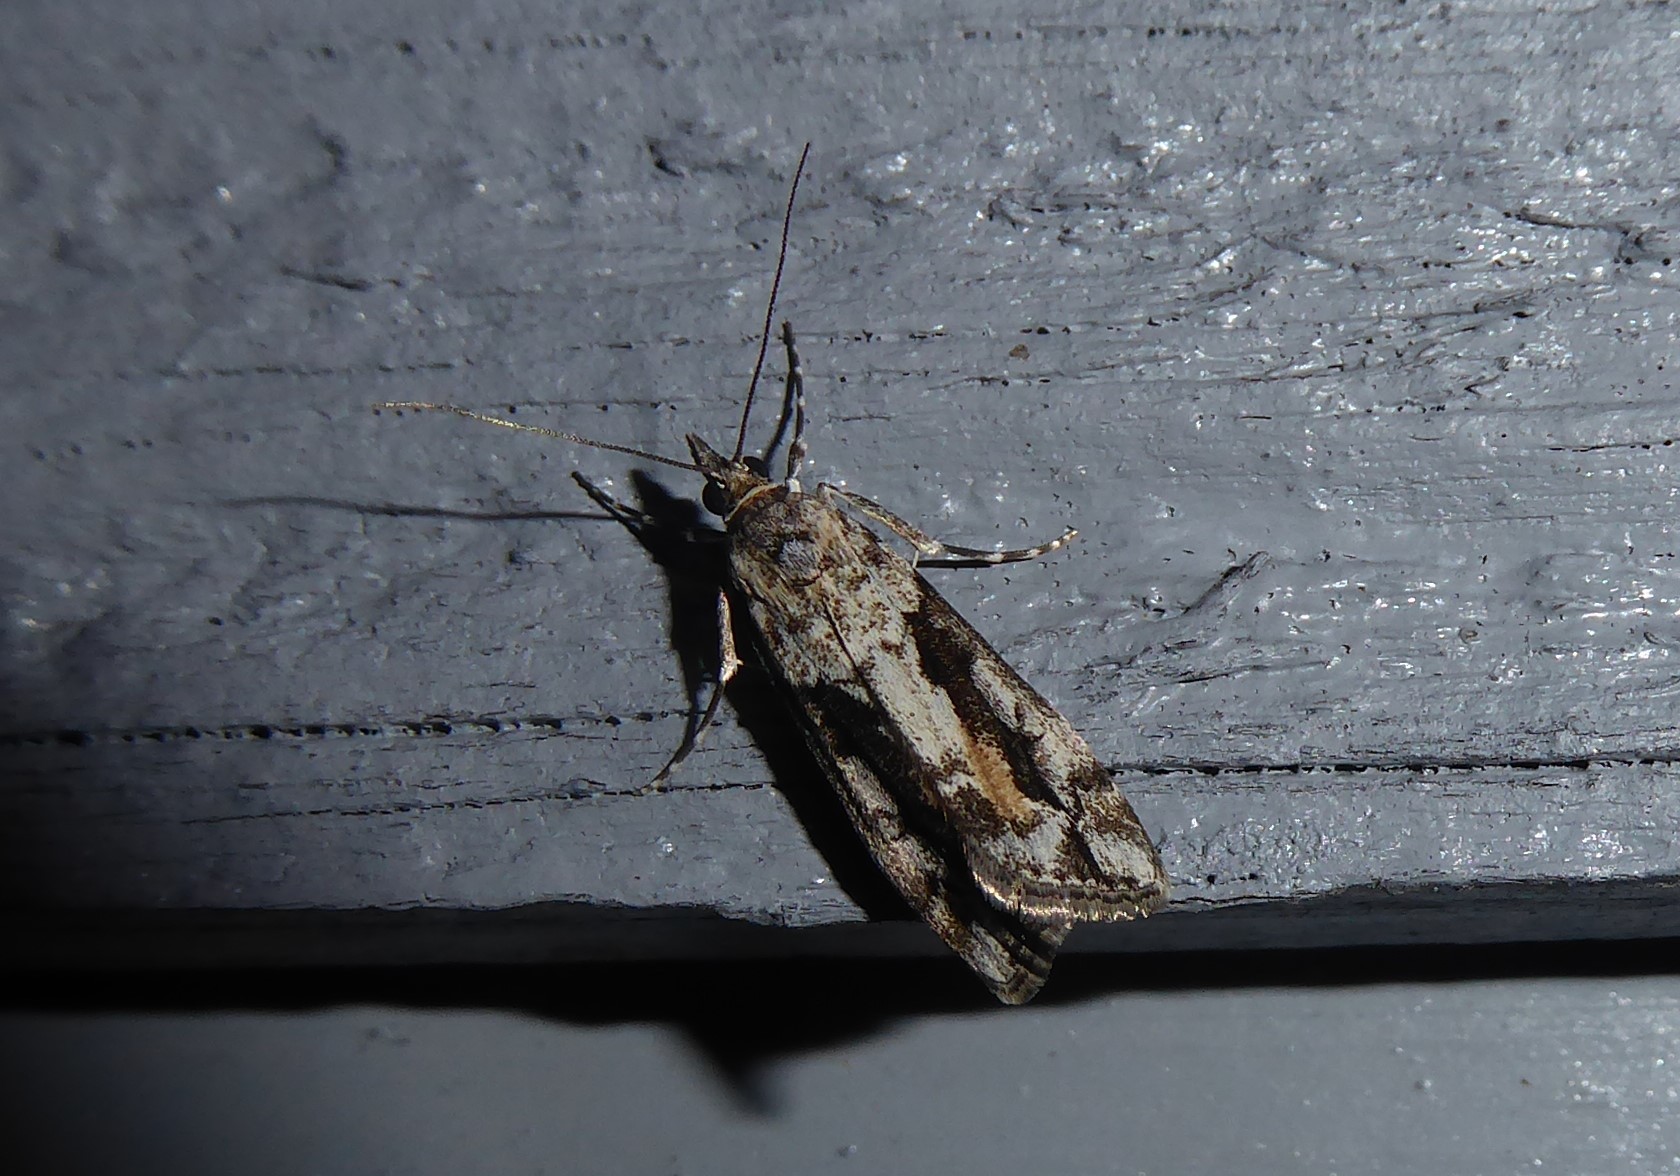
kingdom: Animalia
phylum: Arthropoda
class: Insecta
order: Lepidoptera
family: Crambidae
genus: Eudonia
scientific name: Eudonia submarginalis
